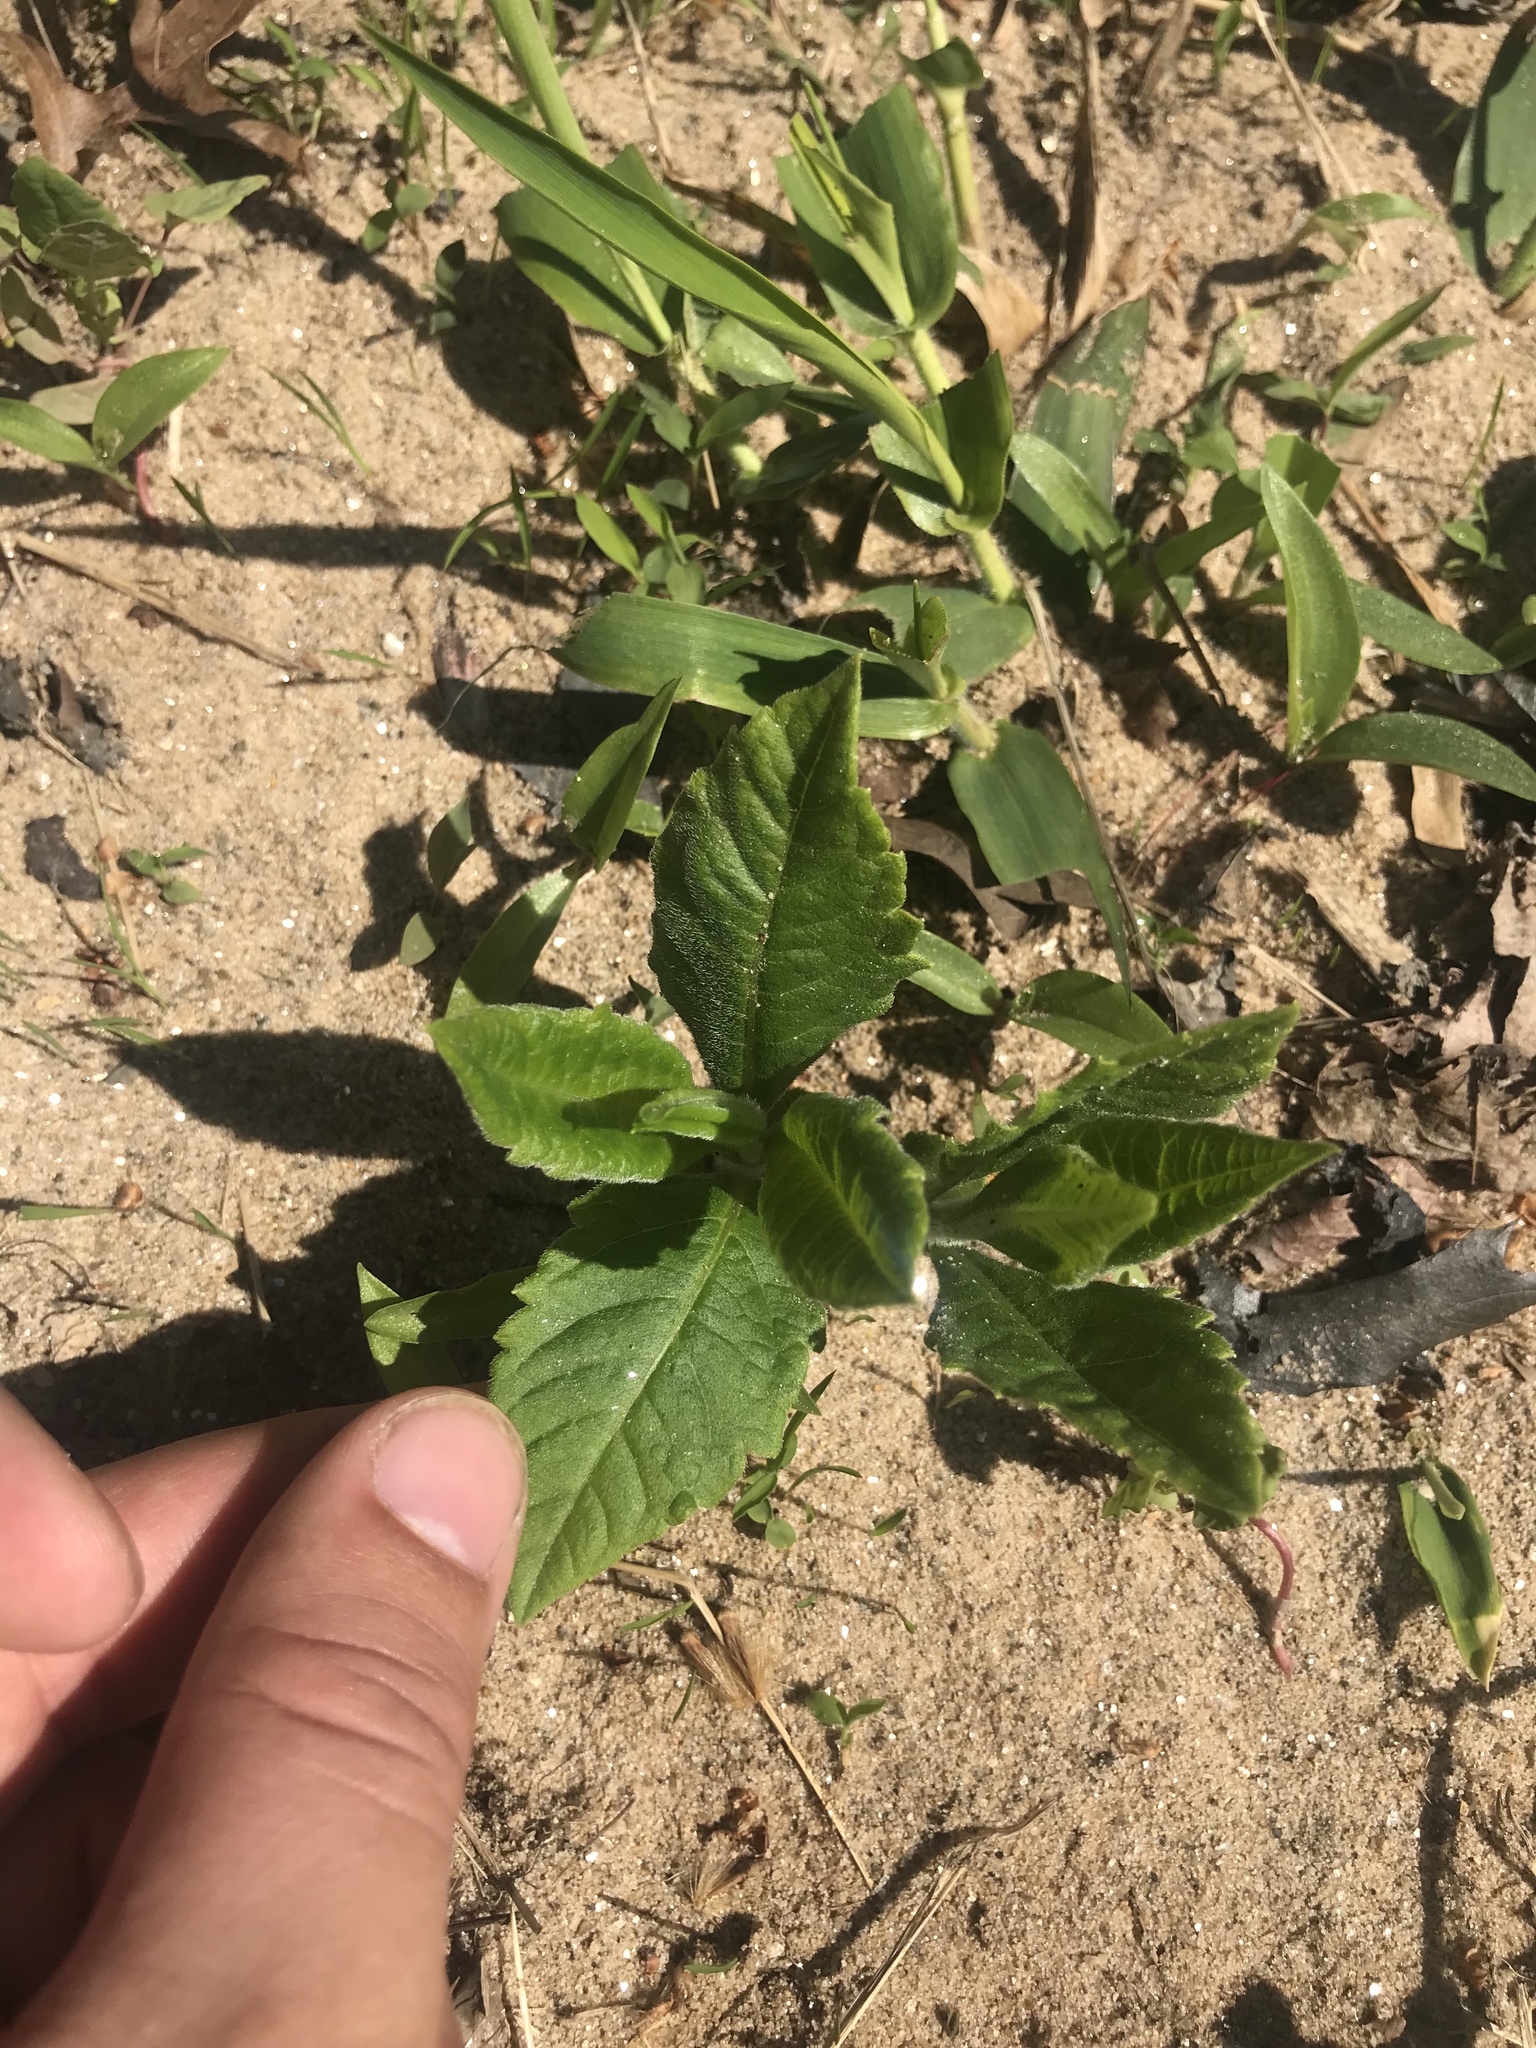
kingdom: Plantae
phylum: Tracheophyta
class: Magnoliopsida
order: Asterales
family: Asteraceae
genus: Verbesina
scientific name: Verbesina alternifolia
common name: Wingstem
